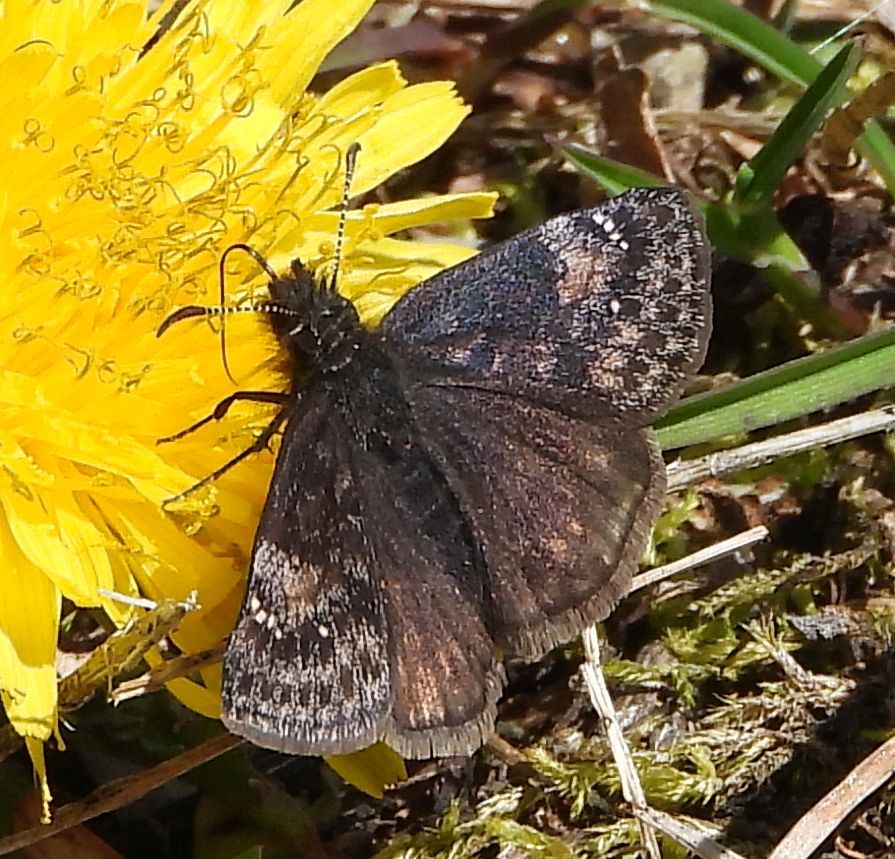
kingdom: Animalia
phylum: Arthropoda
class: Insecta
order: Lepidoptera
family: Hesperiidae
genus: Erynnis
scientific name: Erynnis lucilius
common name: Columbine duskywing
